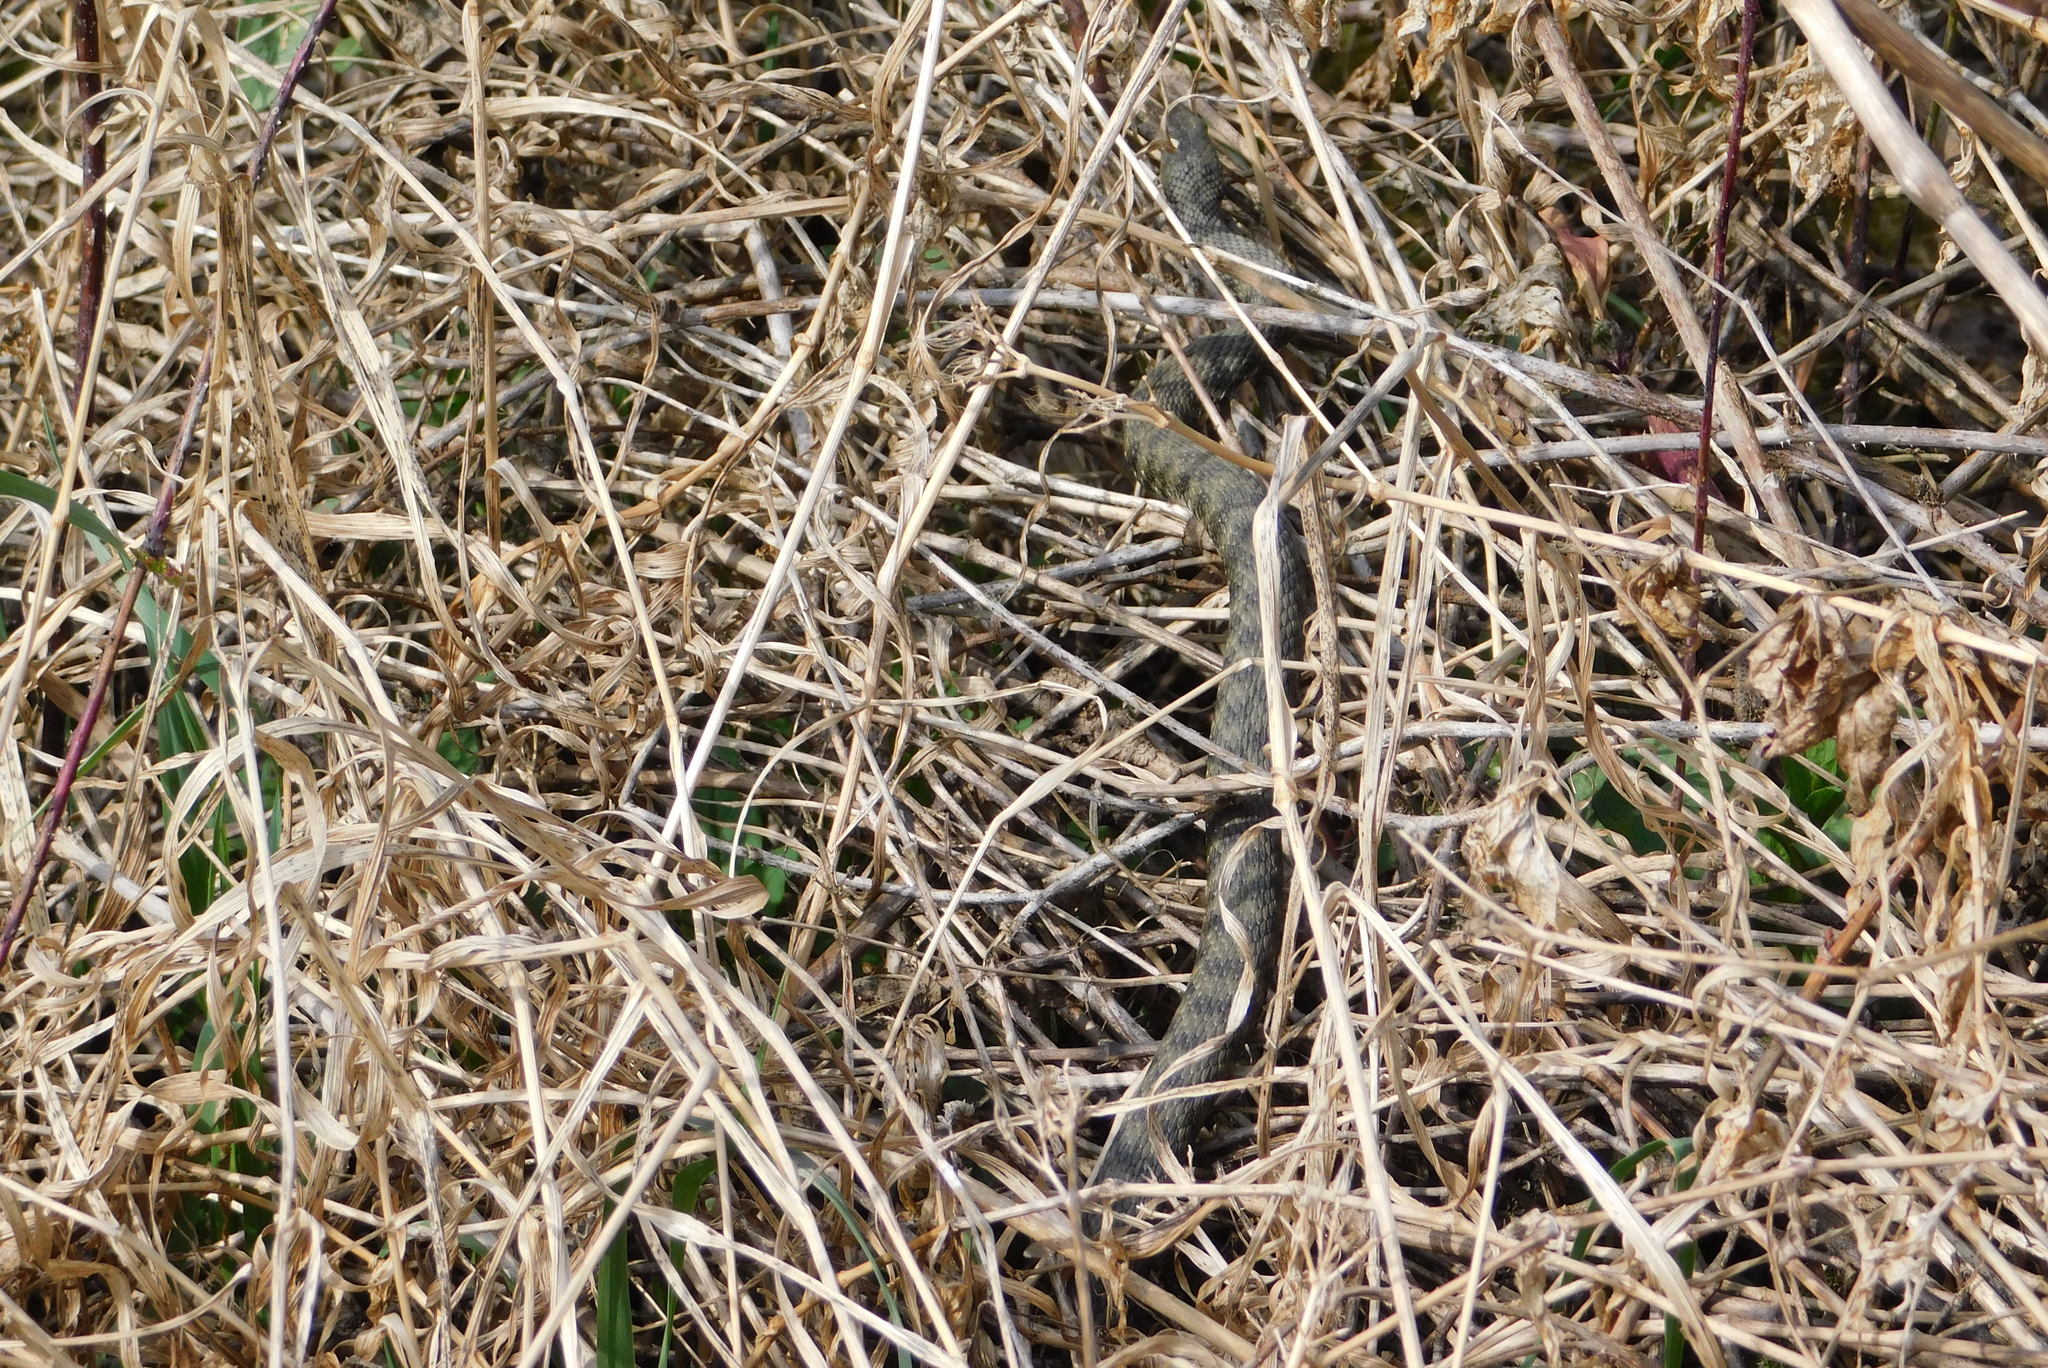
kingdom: Animalia
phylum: Chordata
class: Squamata
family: Colubridae
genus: Natrix
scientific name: Natrix tessellata
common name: Dice snake
